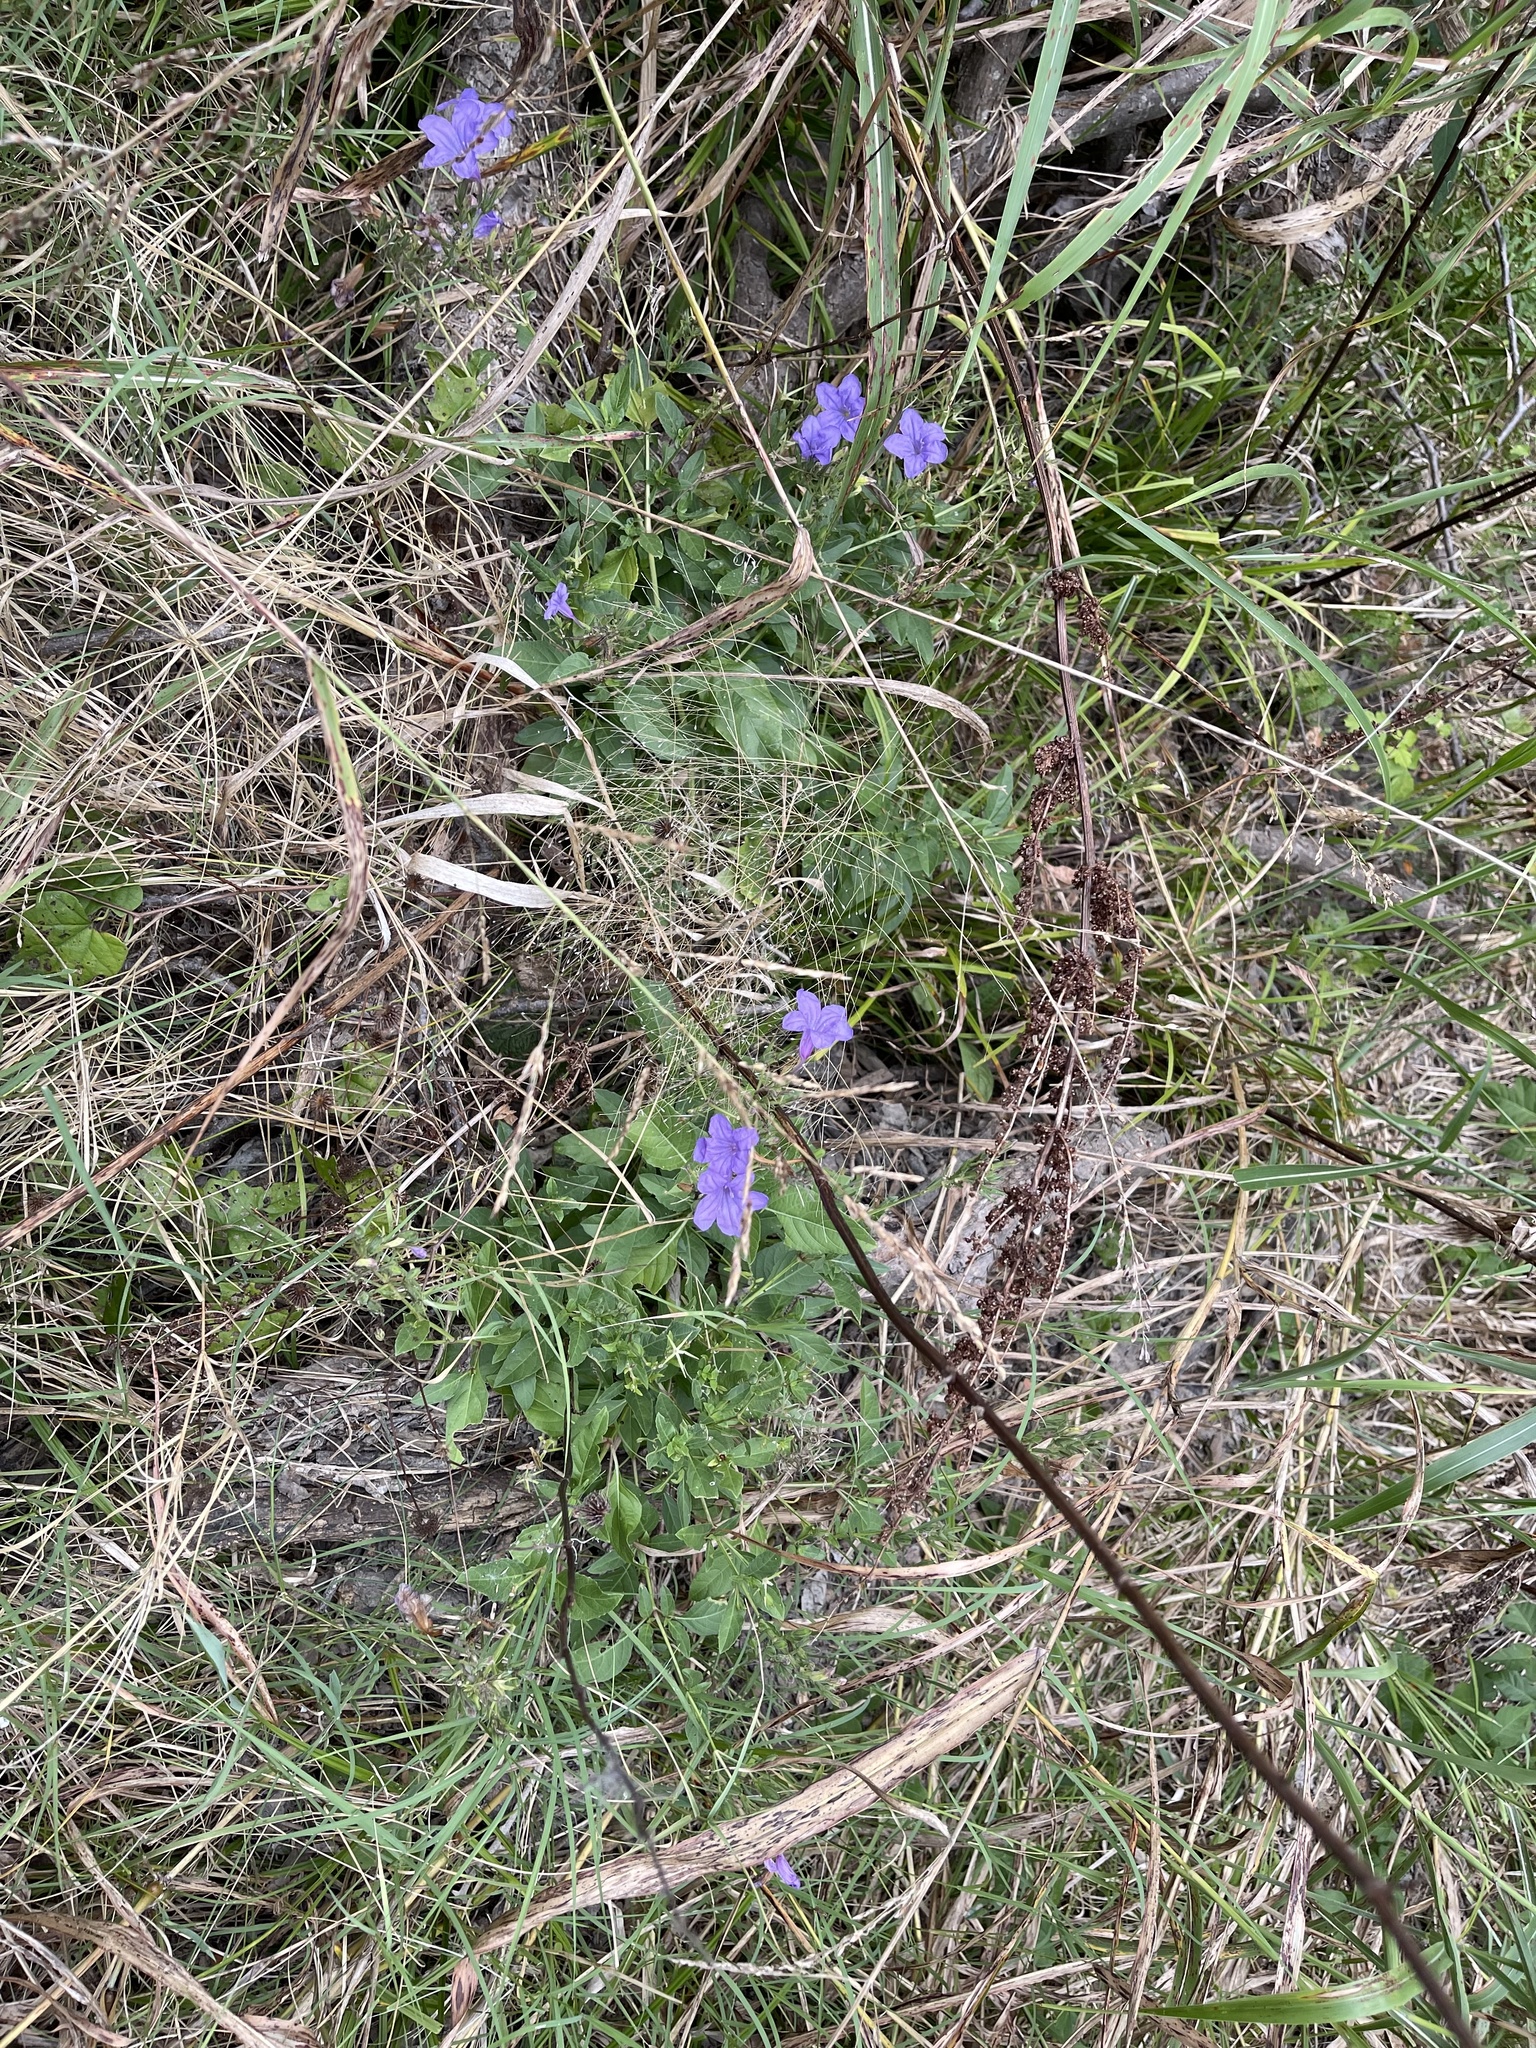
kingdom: Plantae
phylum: Tracheophyta
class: Magnoliopsida
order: Lamiales
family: Acanthaceae
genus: Ruellia
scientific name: Ruellia ciliatiflora
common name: Hairyflower wild petunia
